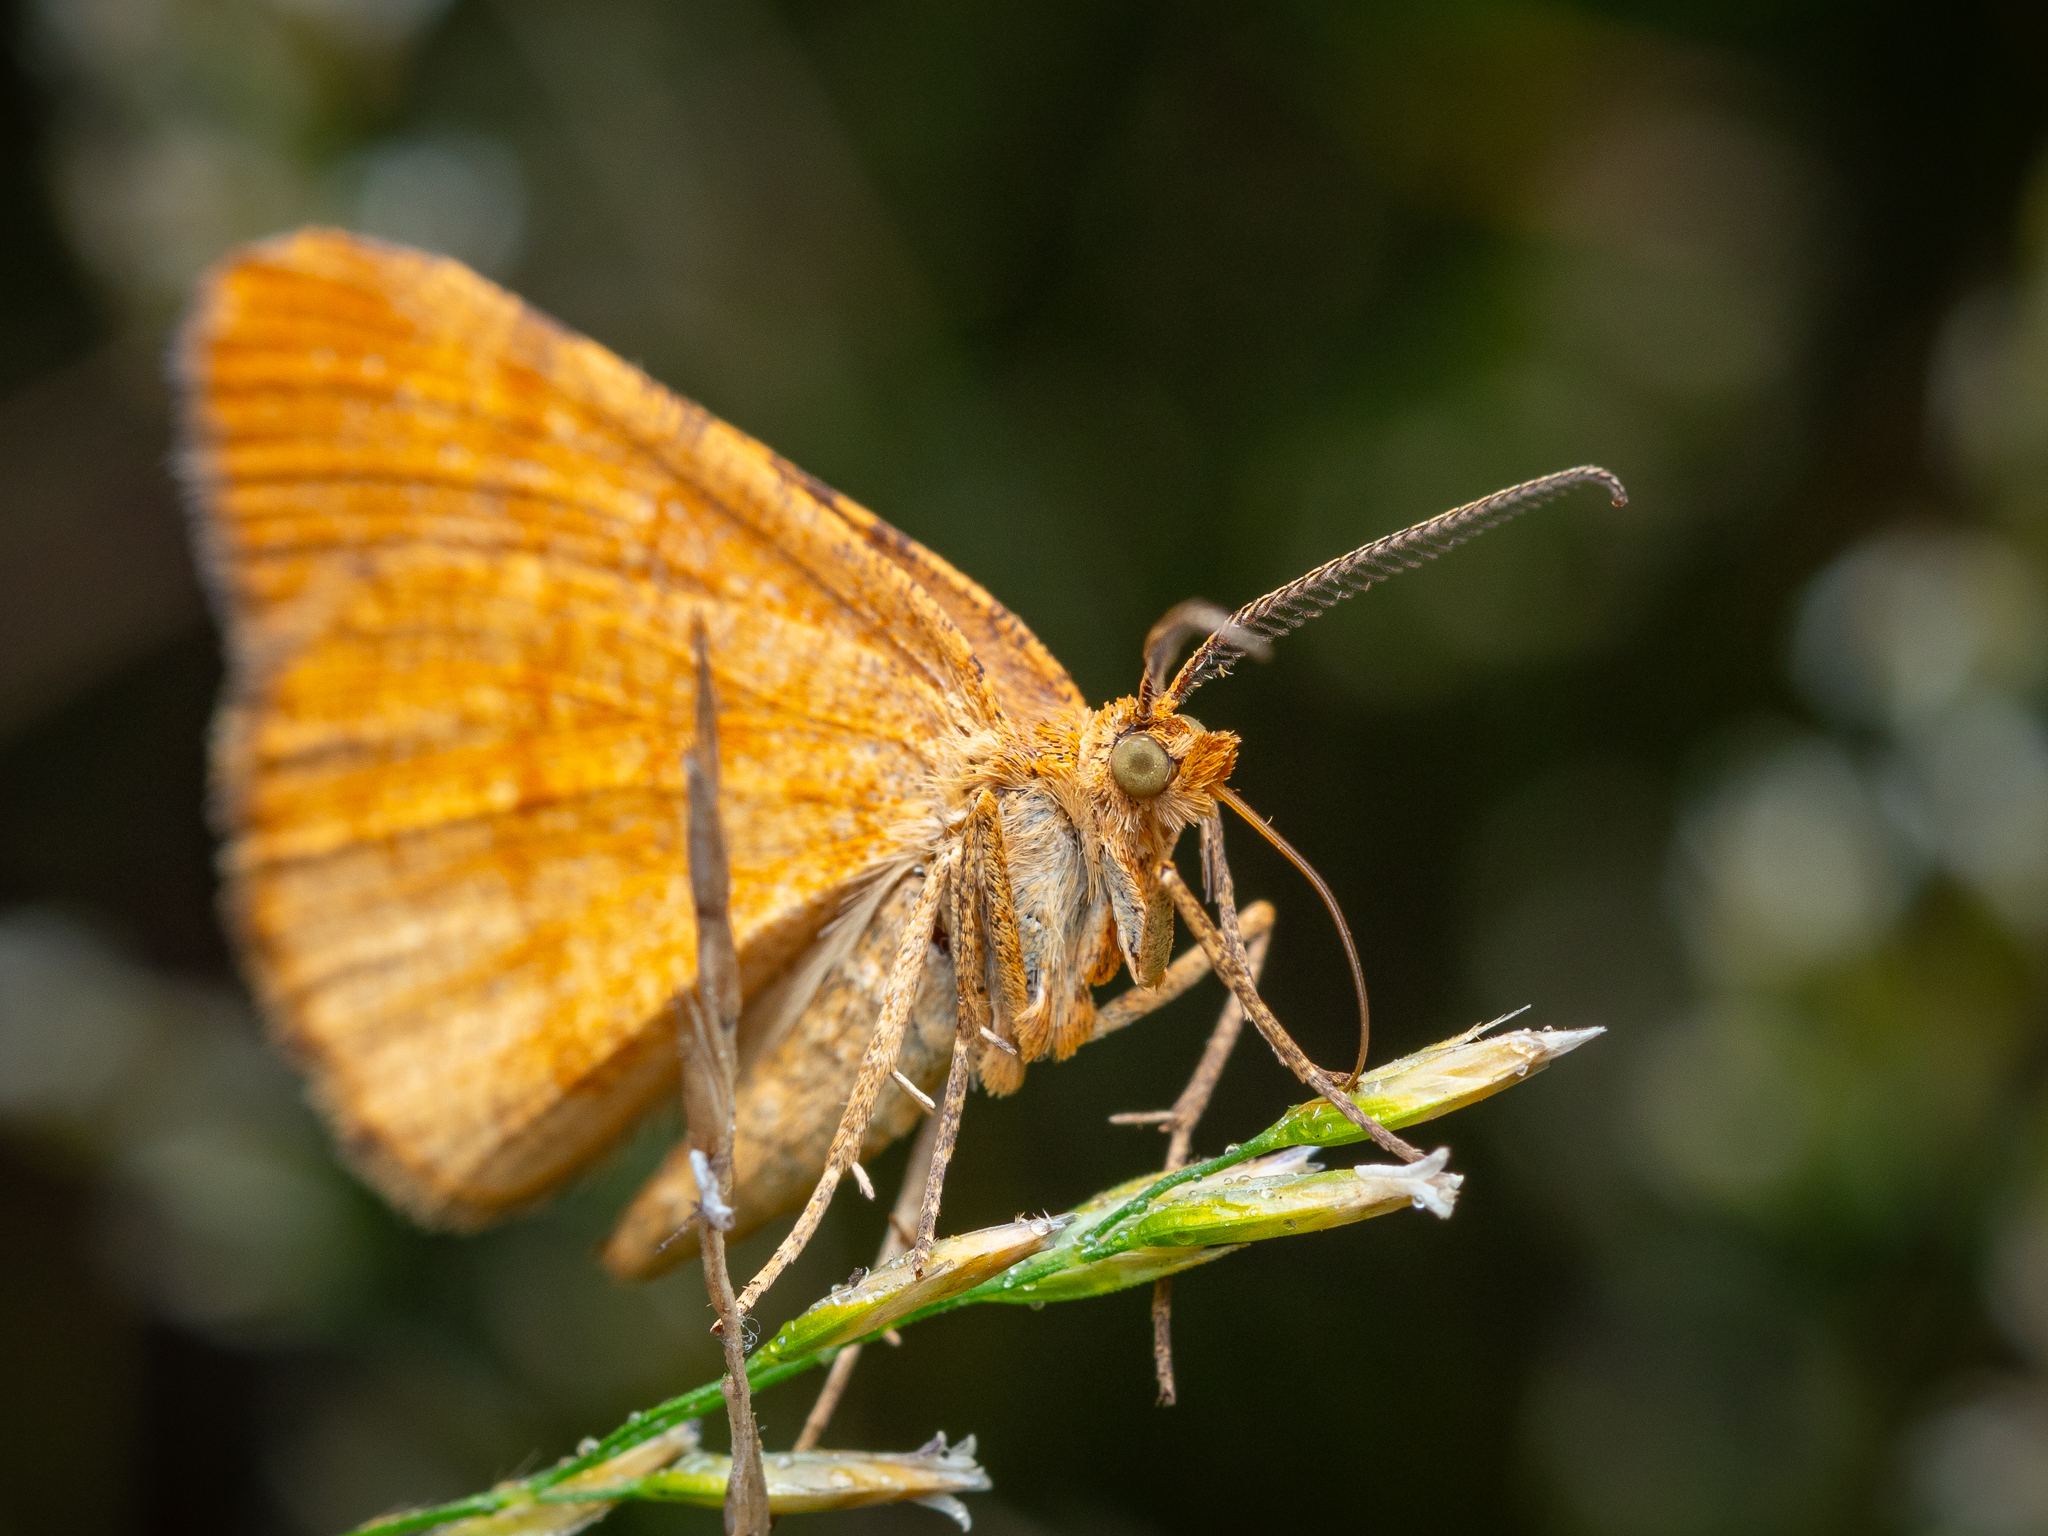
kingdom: Animalia
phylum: Arthropoda
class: Insecta
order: Lepidoptera
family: Geometridae
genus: Macaria
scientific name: Macaria brunneata
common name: Rannoch looper
